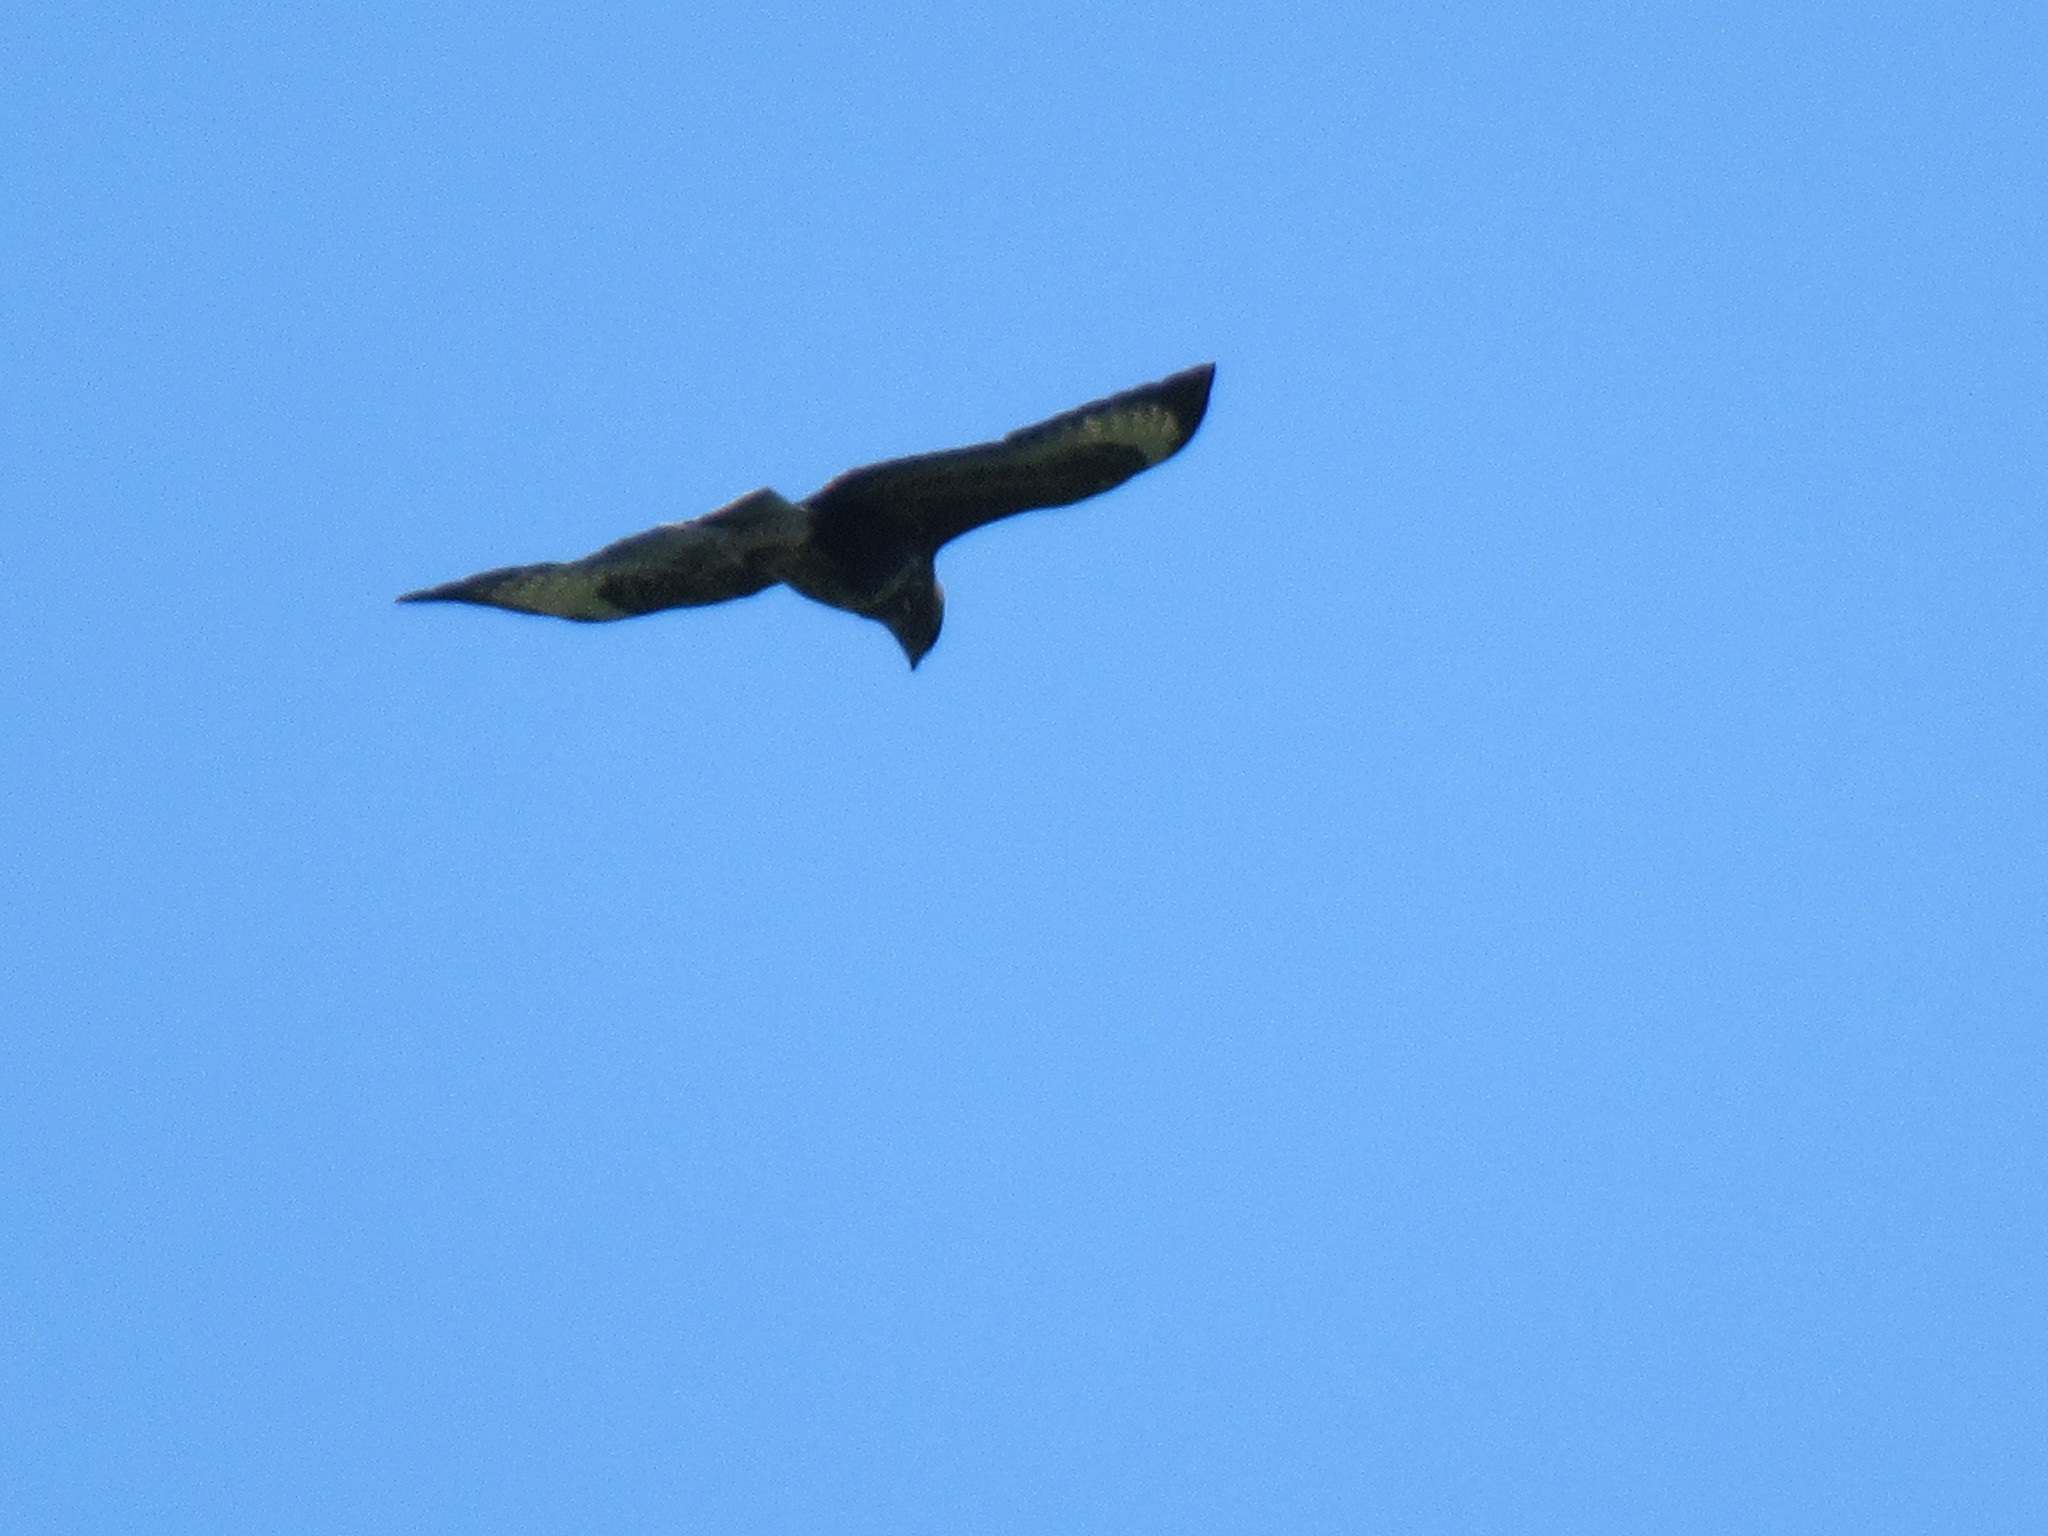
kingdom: Animalia
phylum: Chordata
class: Aves
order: Accipitriformes
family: Accipitridae
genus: Buteo
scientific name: Buteo buteo
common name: Common buzzard
